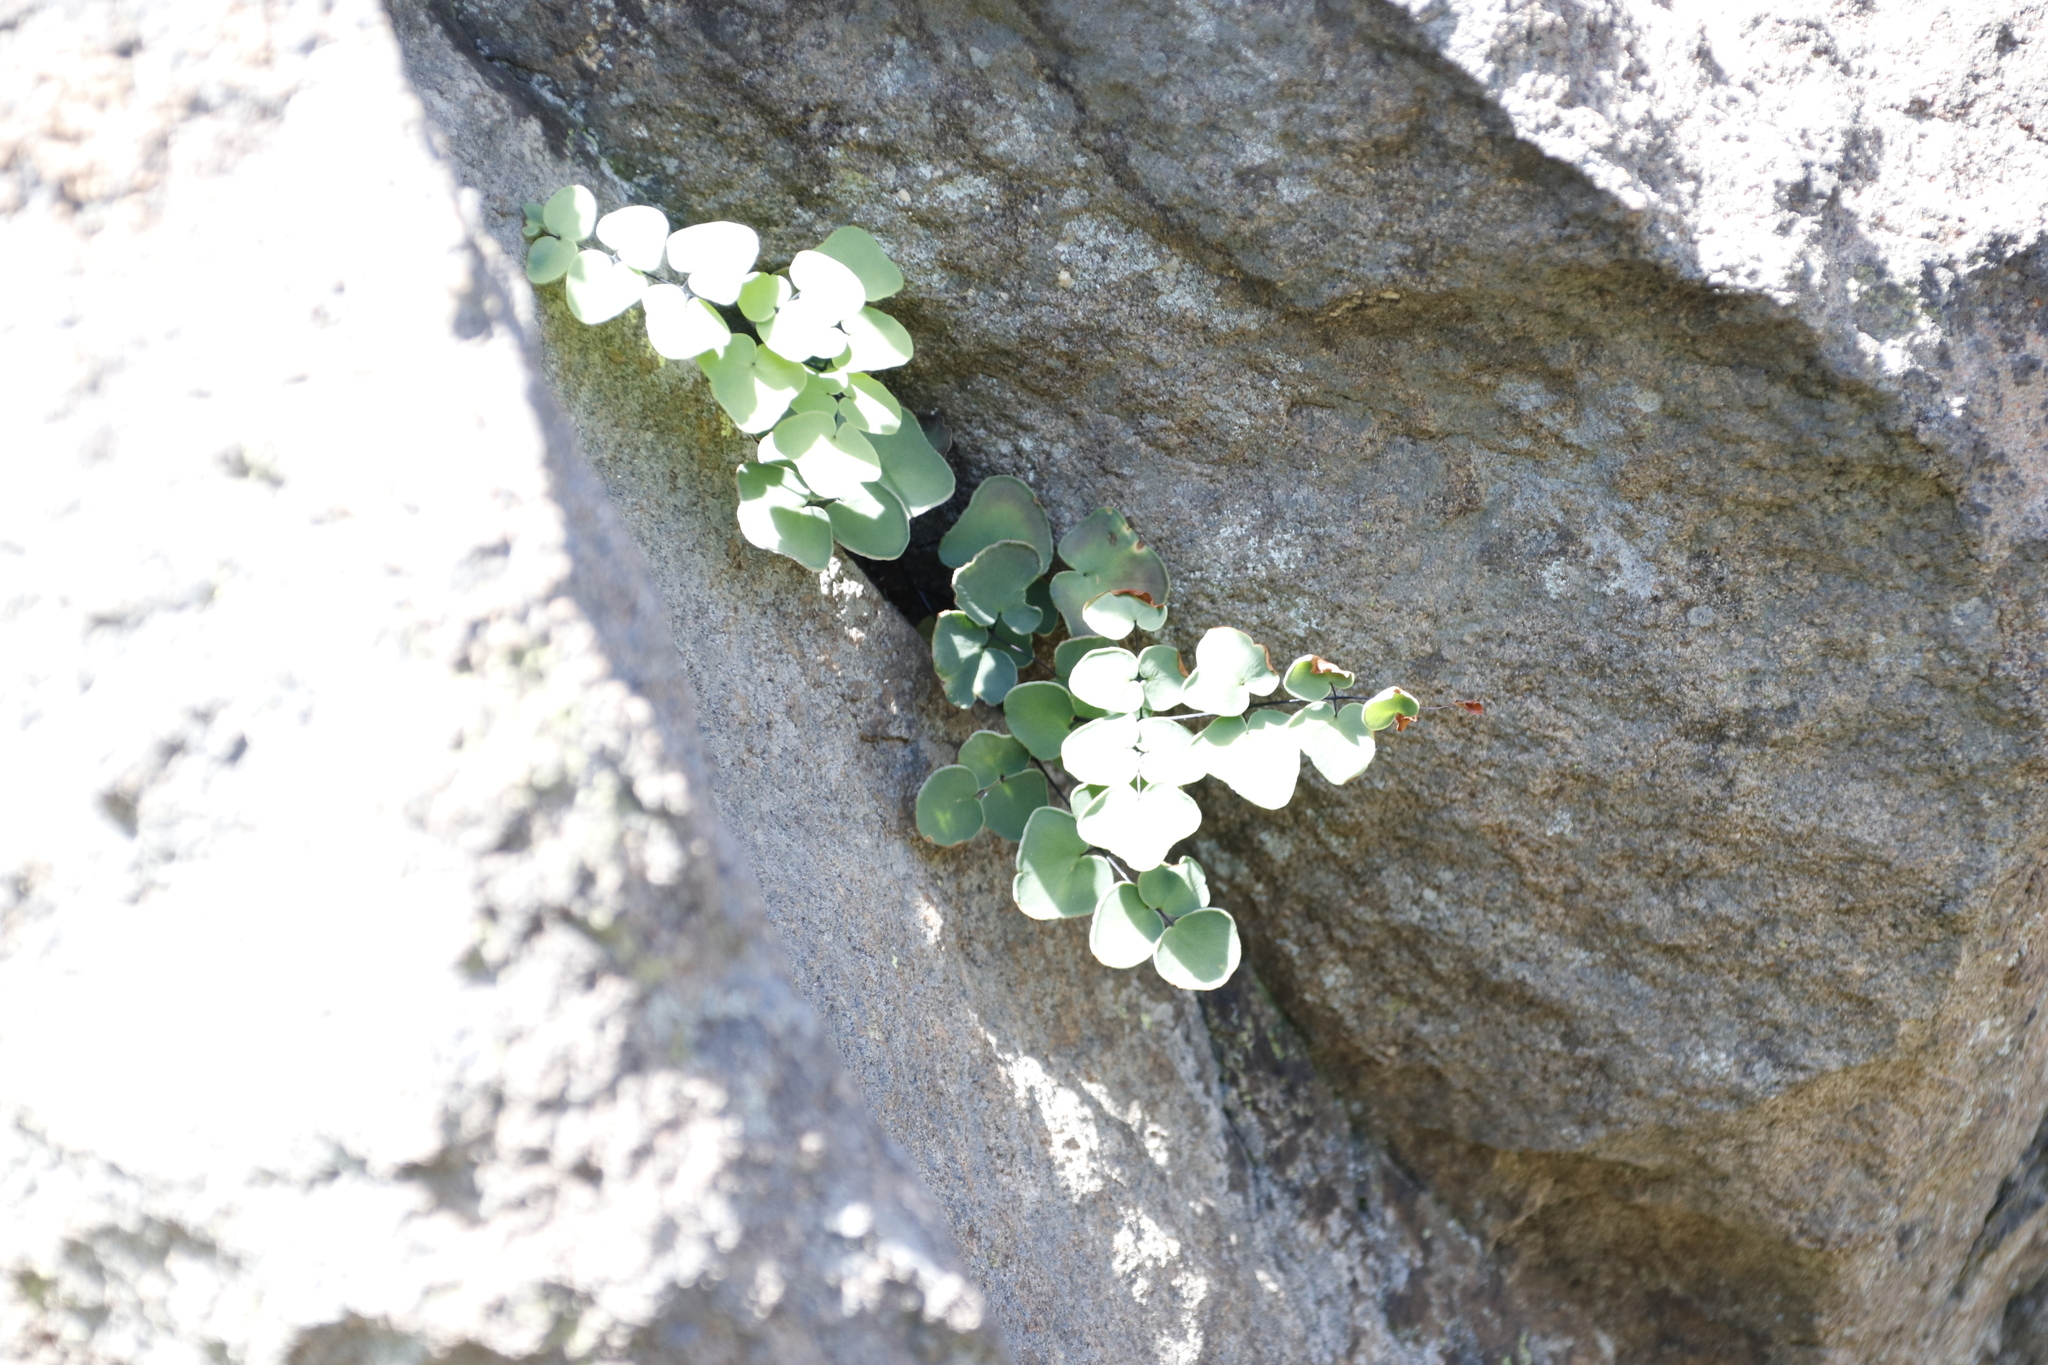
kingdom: Plantae
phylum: Tracheophyta
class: Polypodiopsida
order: Polypodiales
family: Pteridaceae
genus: Pellaea
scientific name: Pellaea calomelanos
